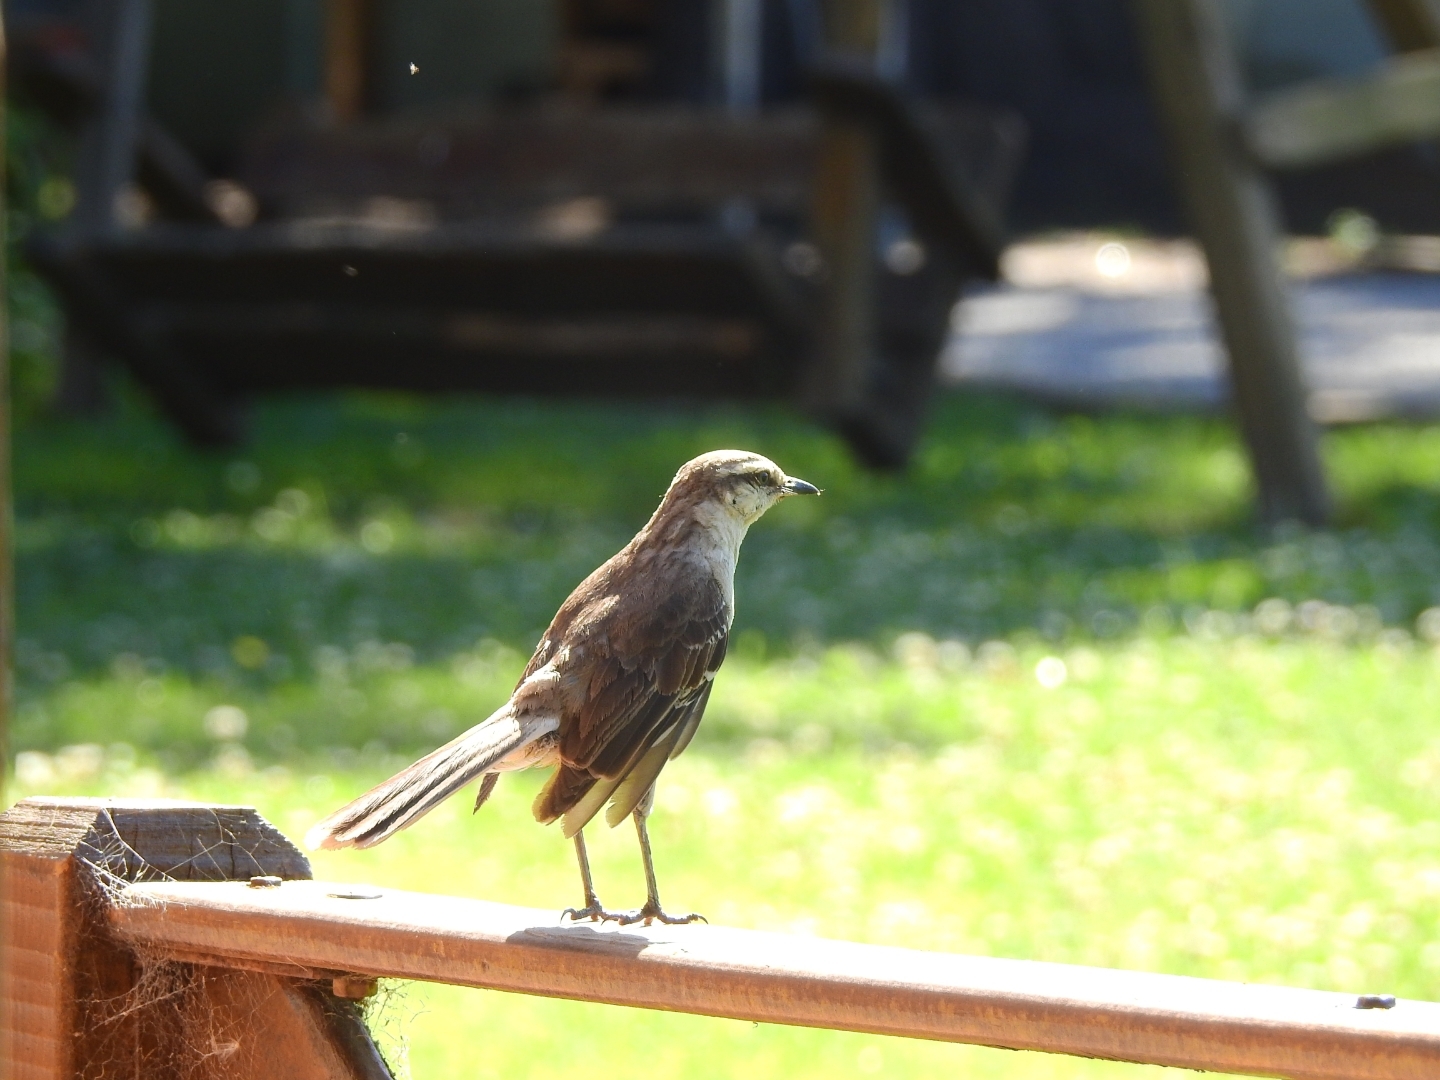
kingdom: Animalia
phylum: Chordata
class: Aves
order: Passeriformes
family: Mimidae
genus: Mimus
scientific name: Mimus saturninus
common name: Chalk-browed mockingbird
